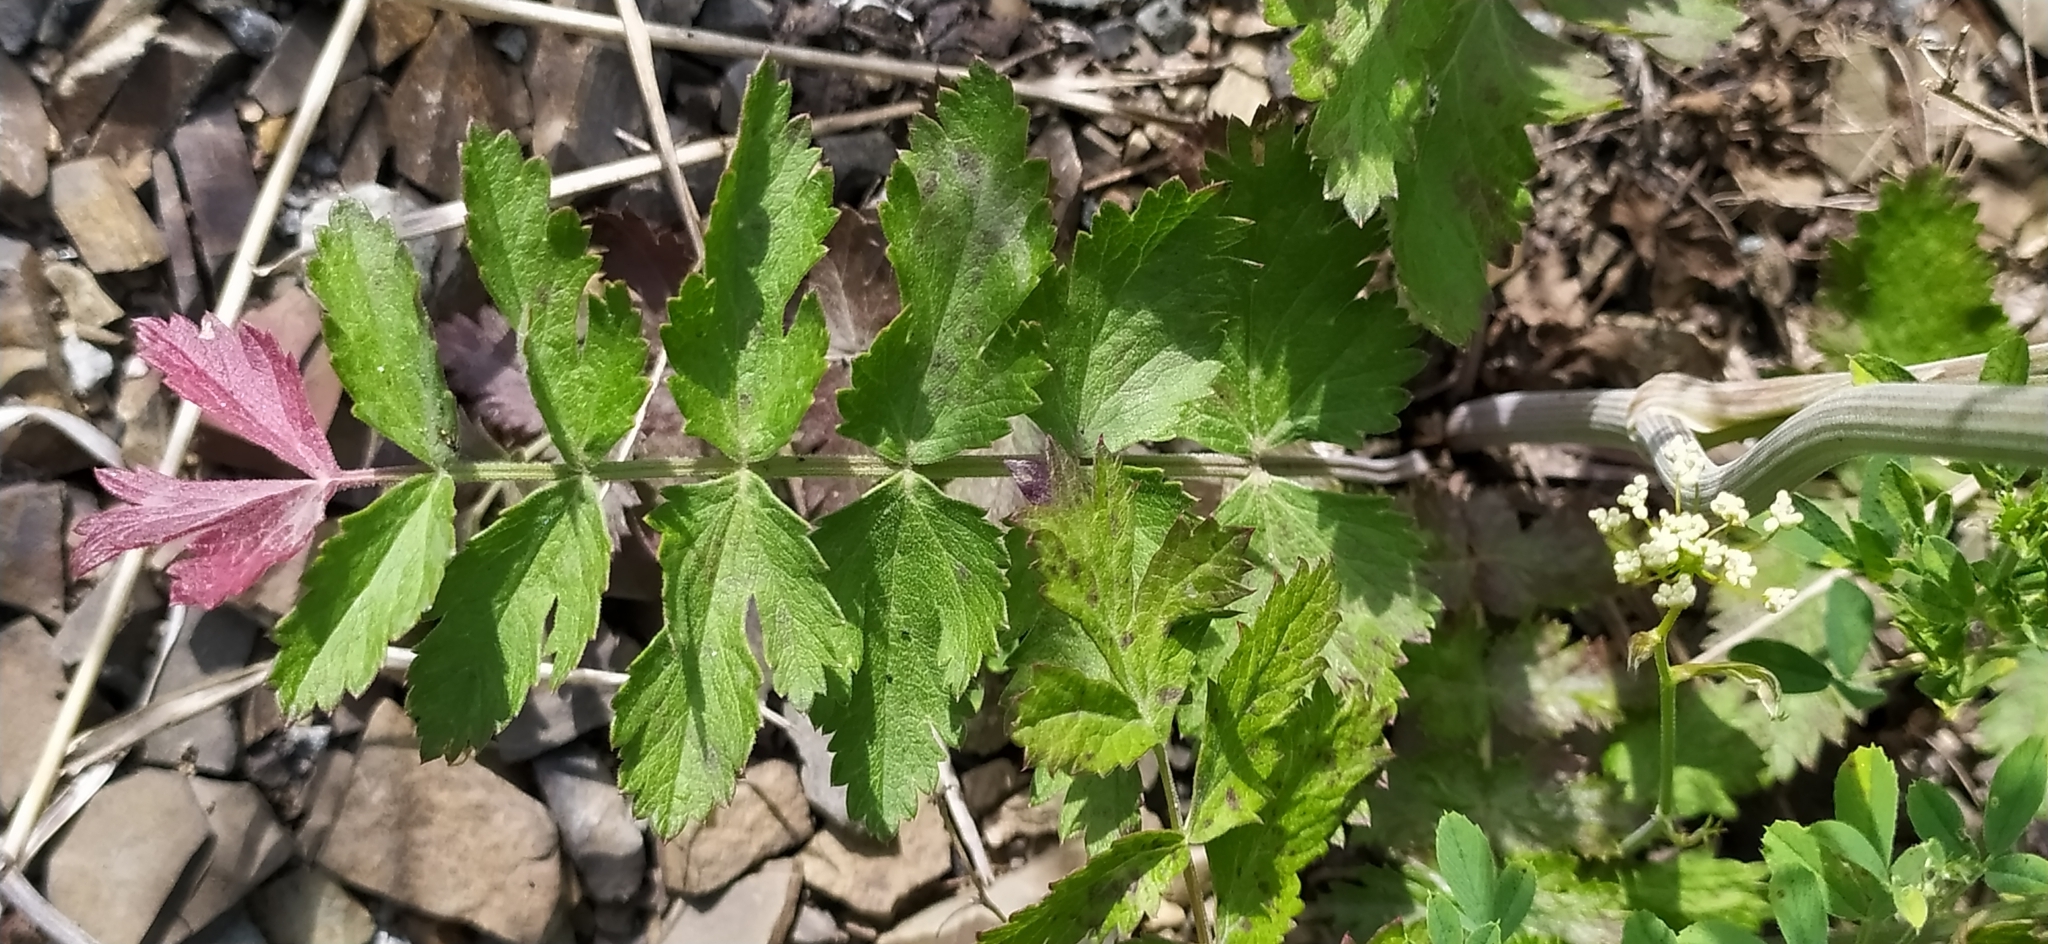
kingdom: Plantae
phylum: Tracheophyta
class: Magnoliopsida
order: Apiales
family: Apiaceae
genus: Pimpinella
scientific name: Pimpinella saxifraga
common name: Burnet-saxifrage
